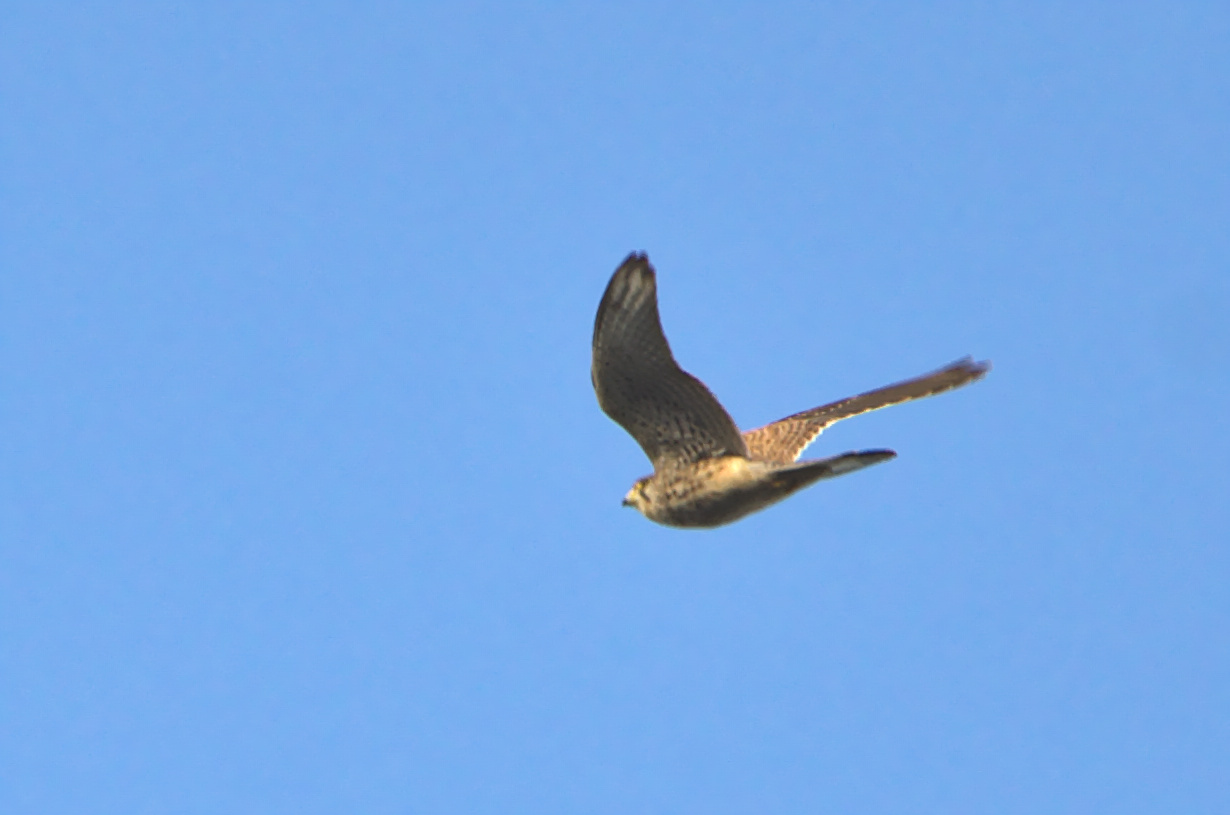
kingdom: Animalia
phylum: Chordata
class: Aves
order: Falconiformes
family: Falconidae
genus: Falco
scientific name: Falco tinnunculus
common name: Common kestrel
